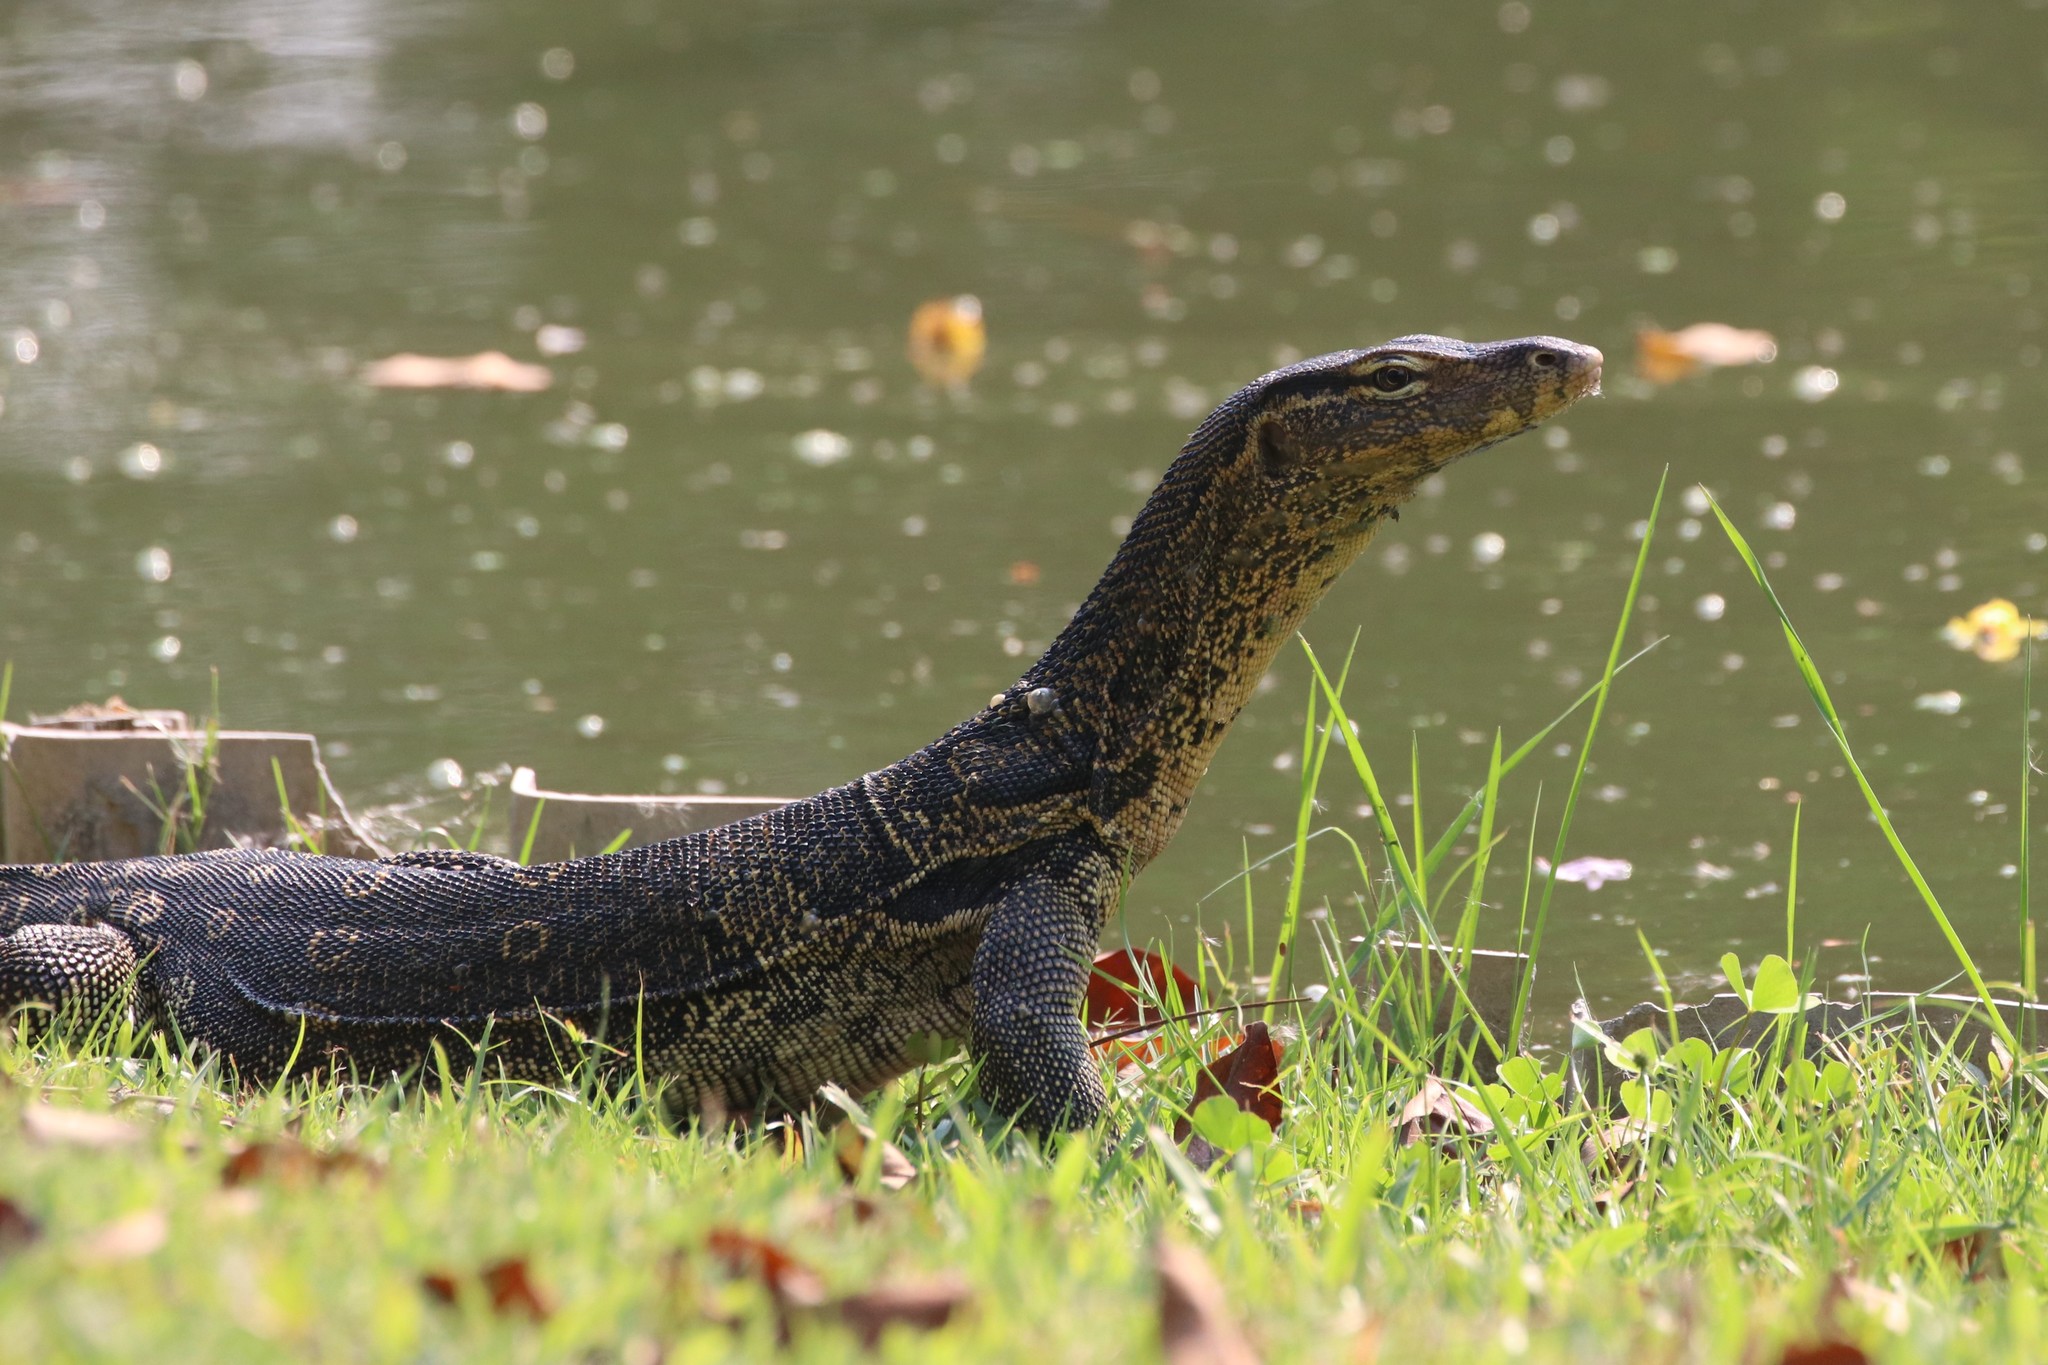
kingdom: Animalia
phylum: Chordata
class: Squamata
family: Varanidae
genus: Varanus
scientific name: Varanus salvator
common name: Common water monitor
